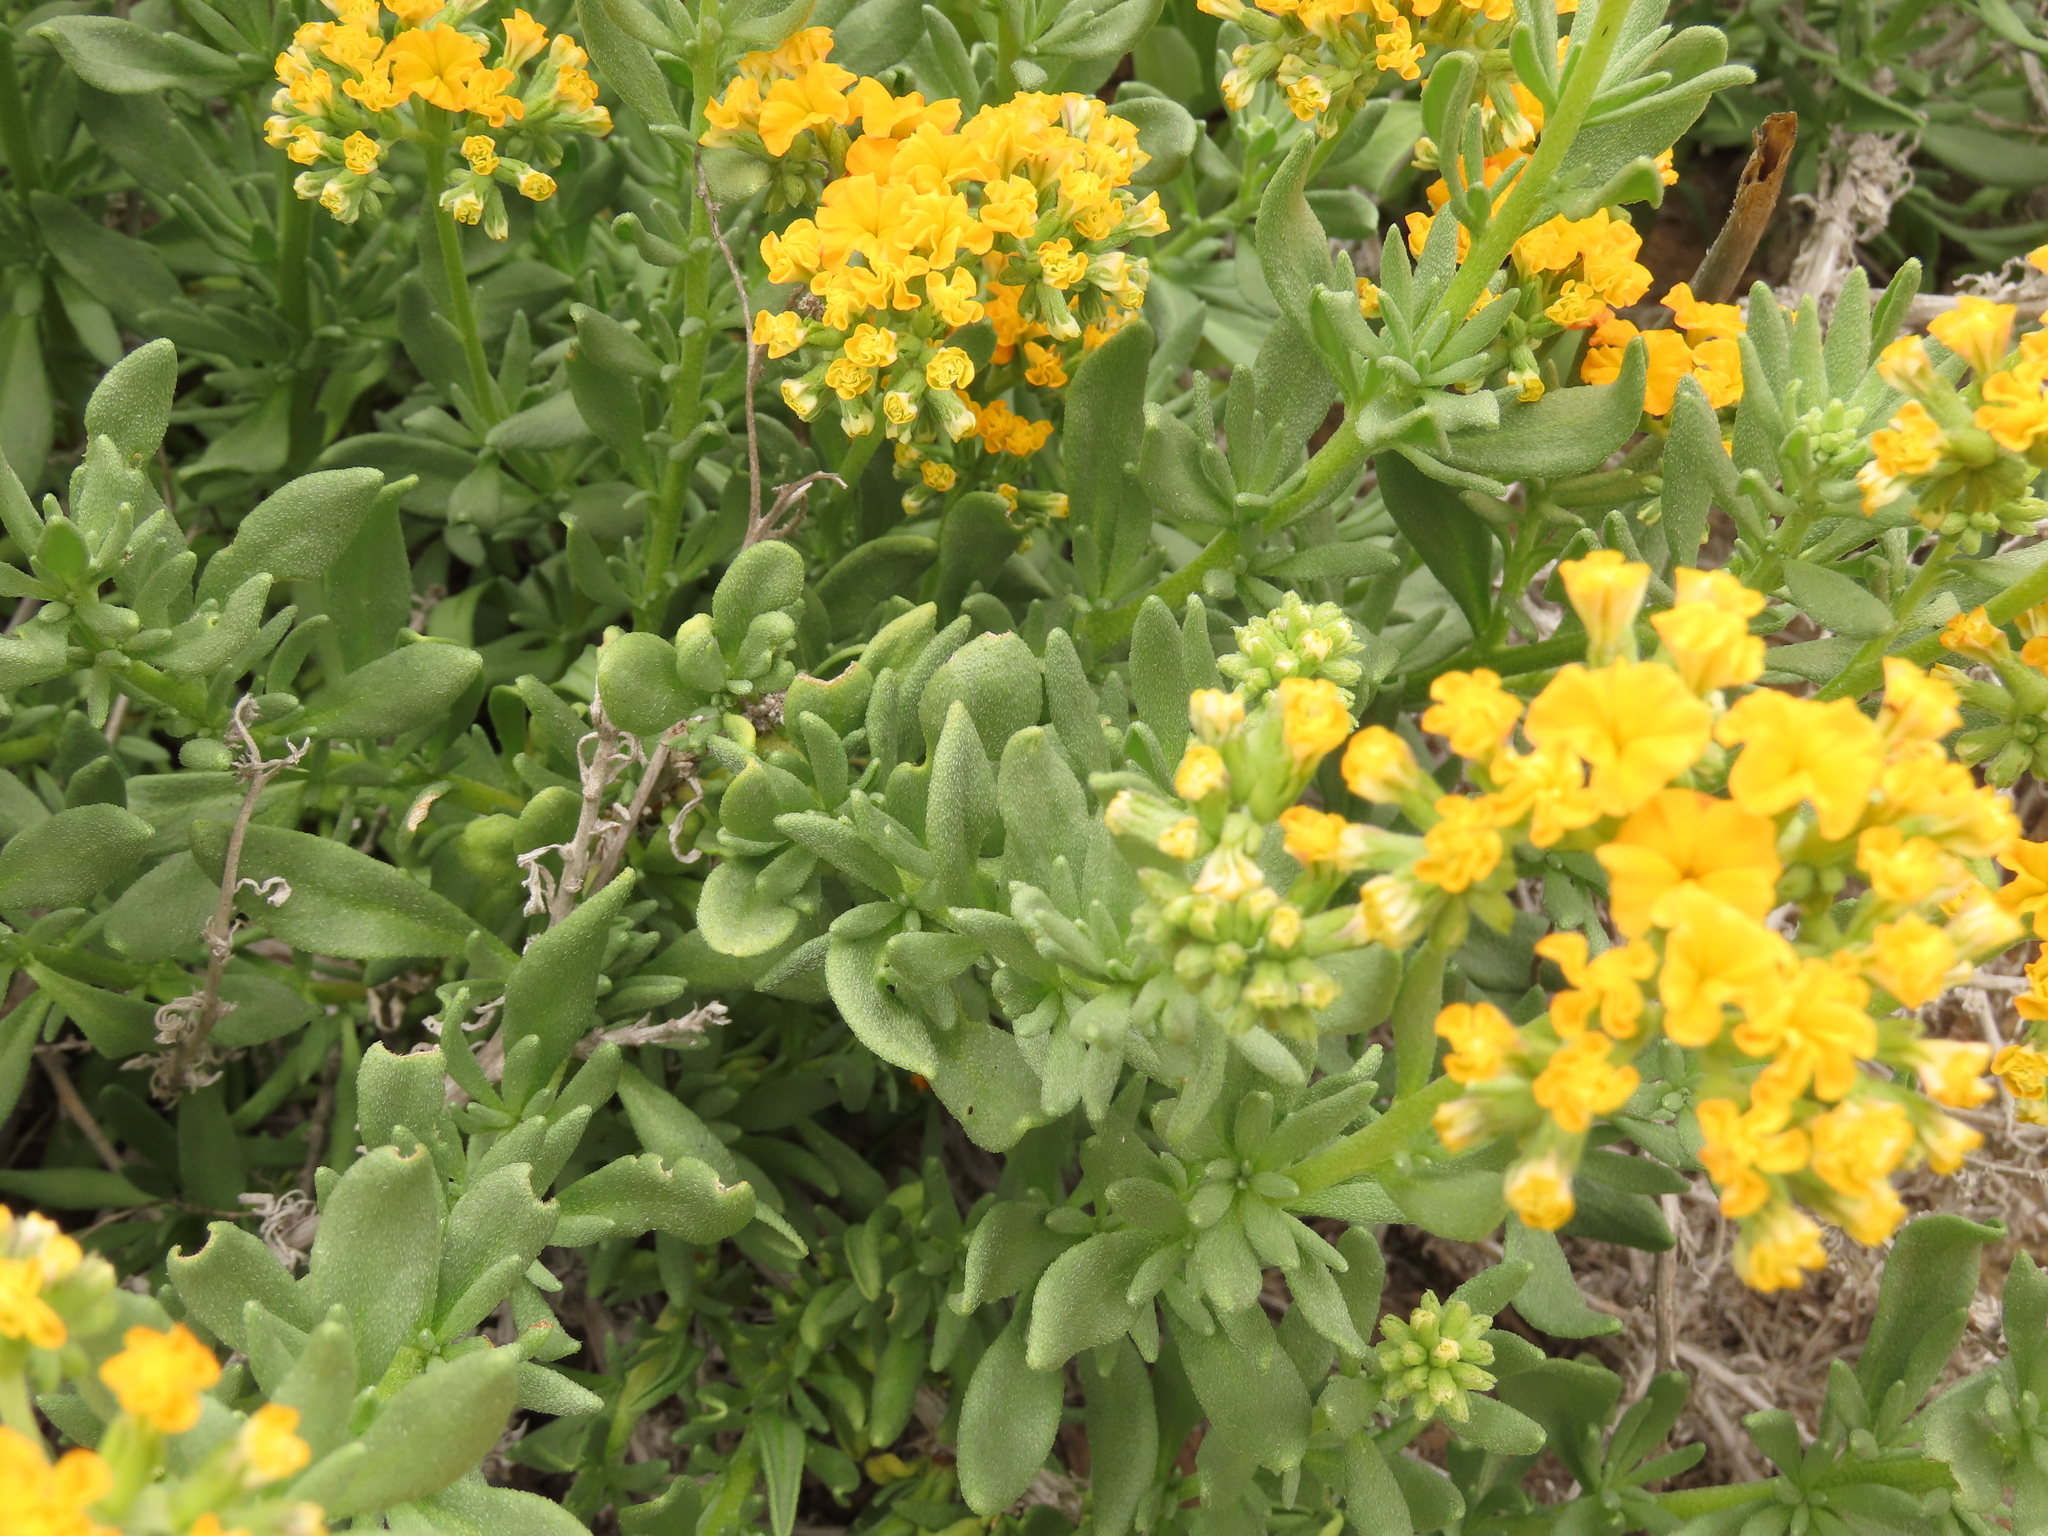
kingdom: Plantae
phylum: Tracheophyta
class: Magnoliopsida
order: Boraginales
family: Heliotropiaceae
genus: Heliotropium
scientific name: Heliotropium linariifolium
